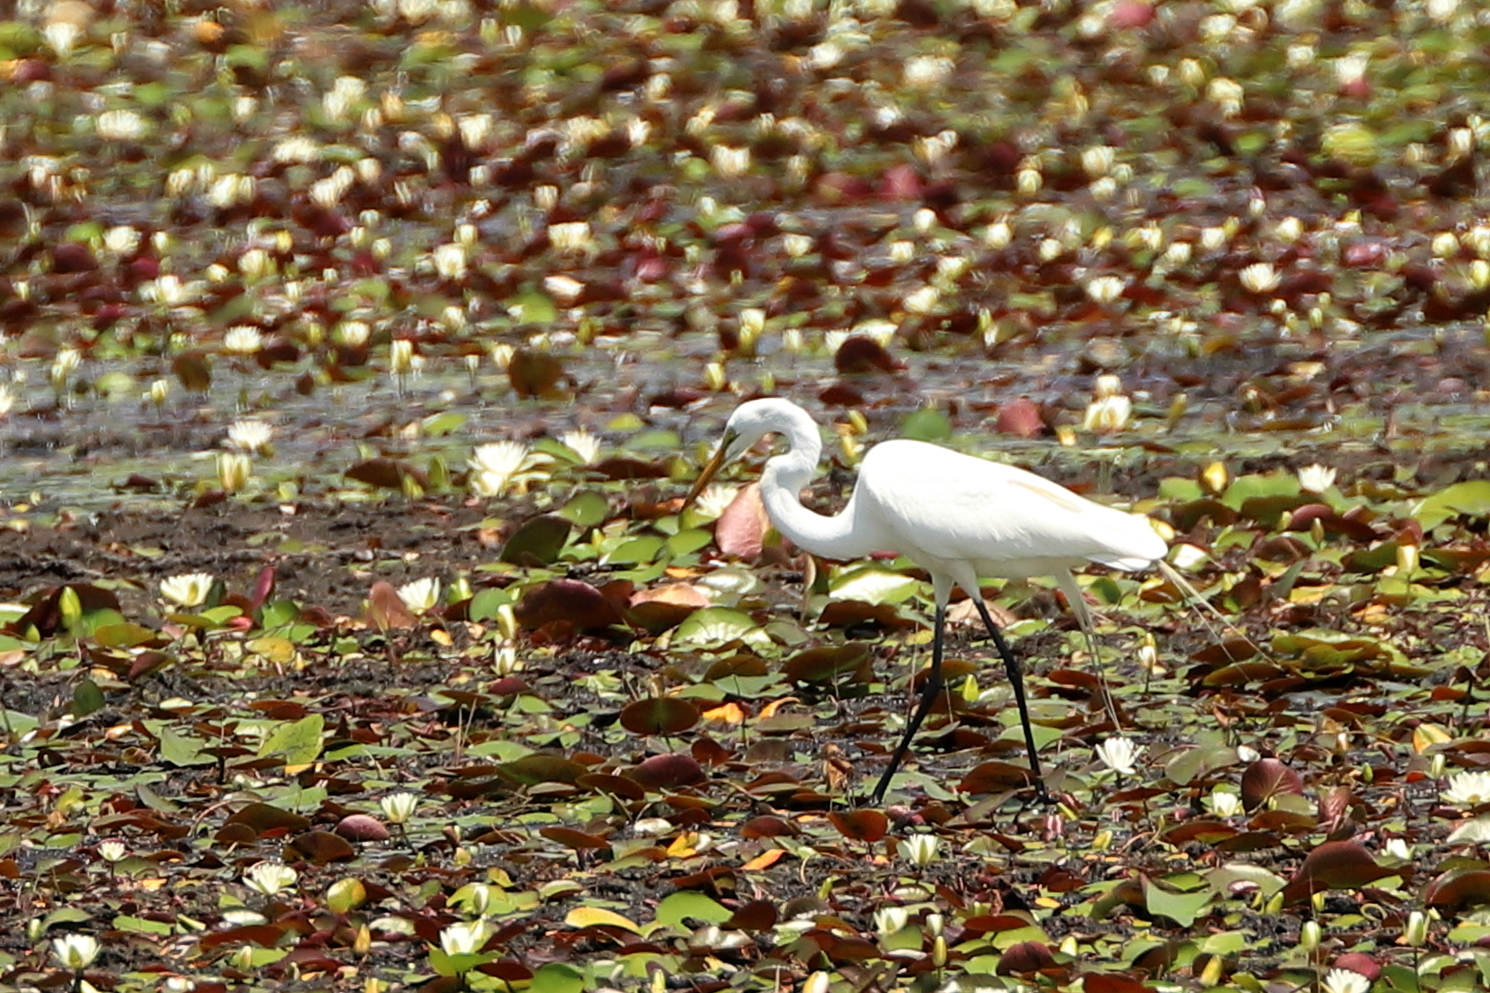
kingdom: Animalia
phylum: Chordata
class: Aves
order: Pelecaniformes
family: Ardeidae
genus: Ardea
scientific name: Ardea alba
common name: Great egret
